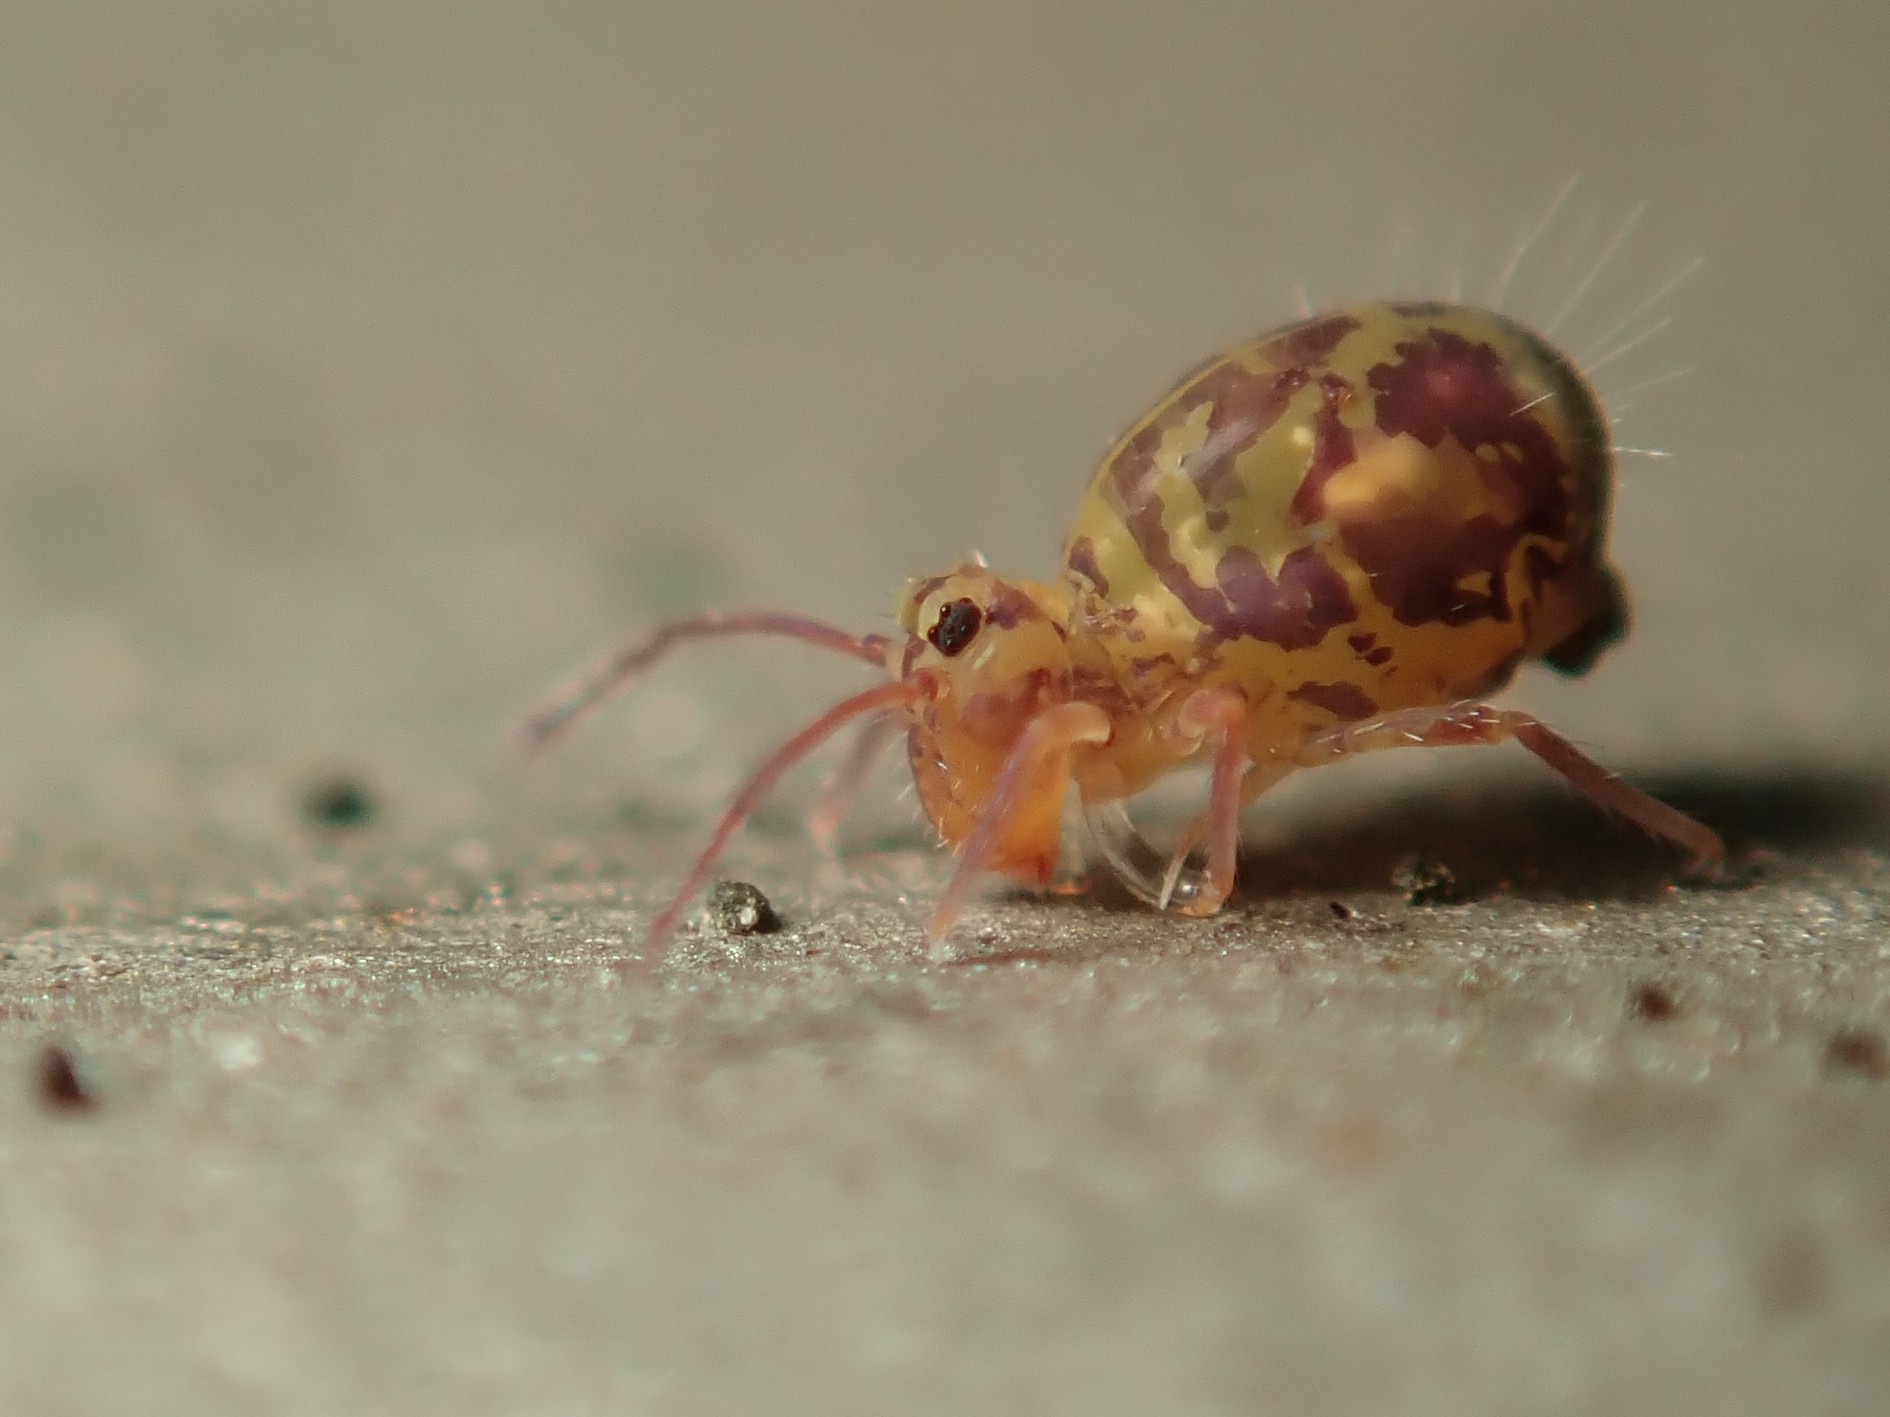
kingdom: Animalia
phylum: Arthropoda
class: Collembola
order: Symphypleona
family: Dicyrtomidae
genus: Dicyrtomina
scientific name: Dicyrtomina ornata
